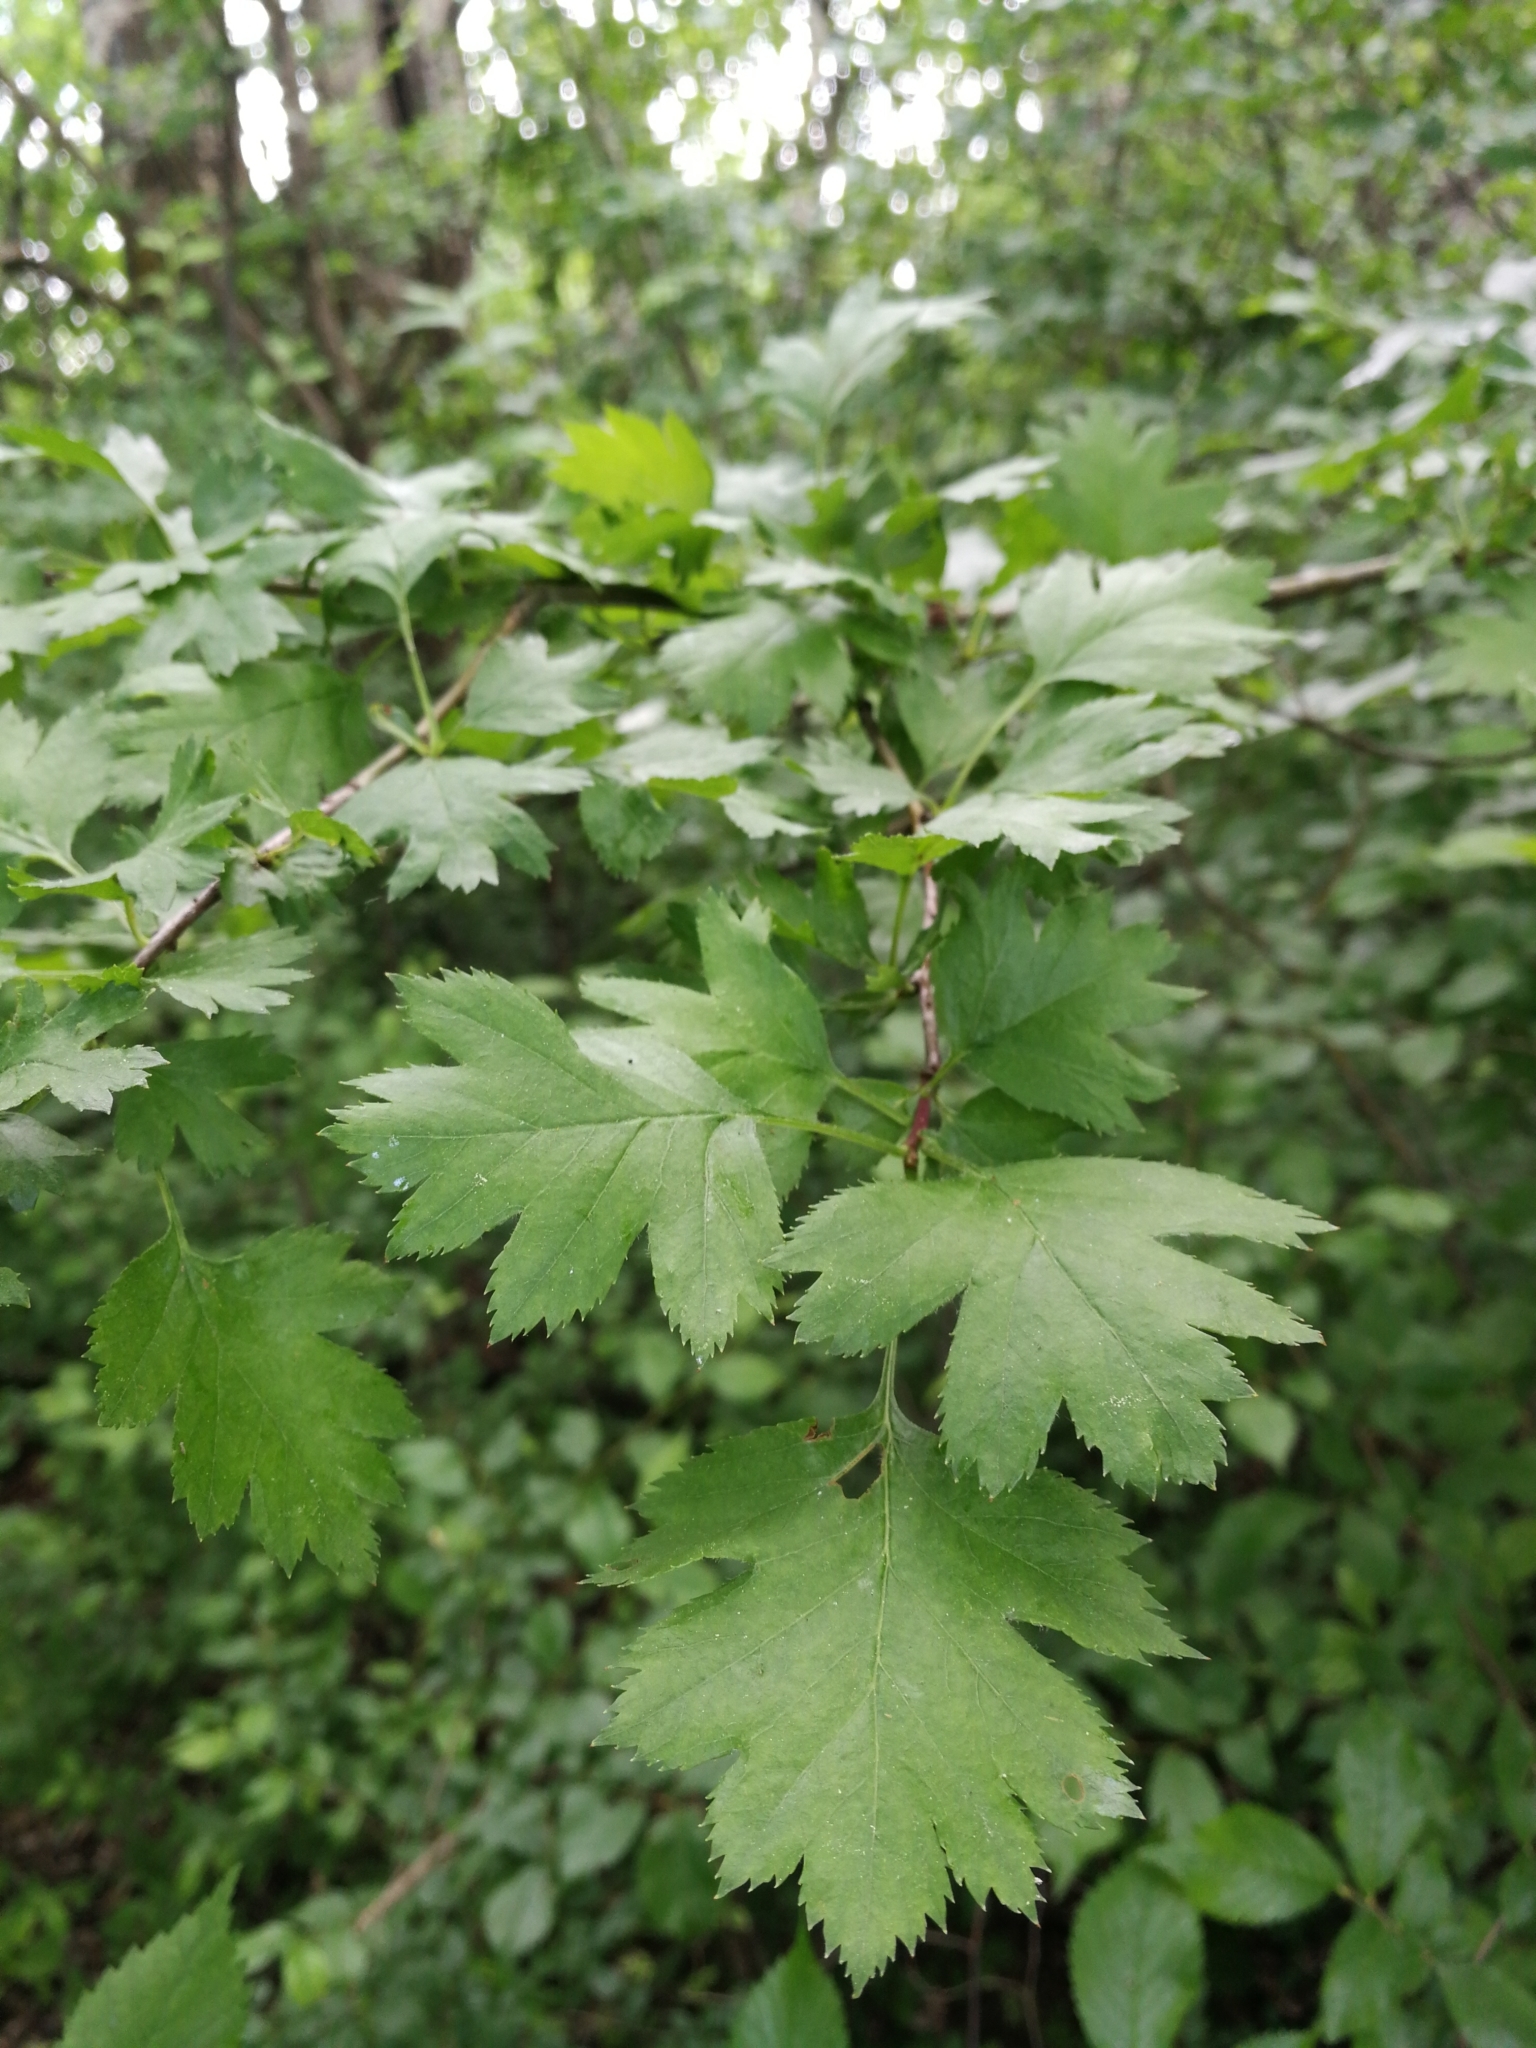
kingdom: Plantae
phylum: Tracheophyta
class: Magnoliopsida
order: Rosales
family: Rosaceae
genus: Crataegus
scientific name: Crataegus monogyna
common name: Hawthorn
